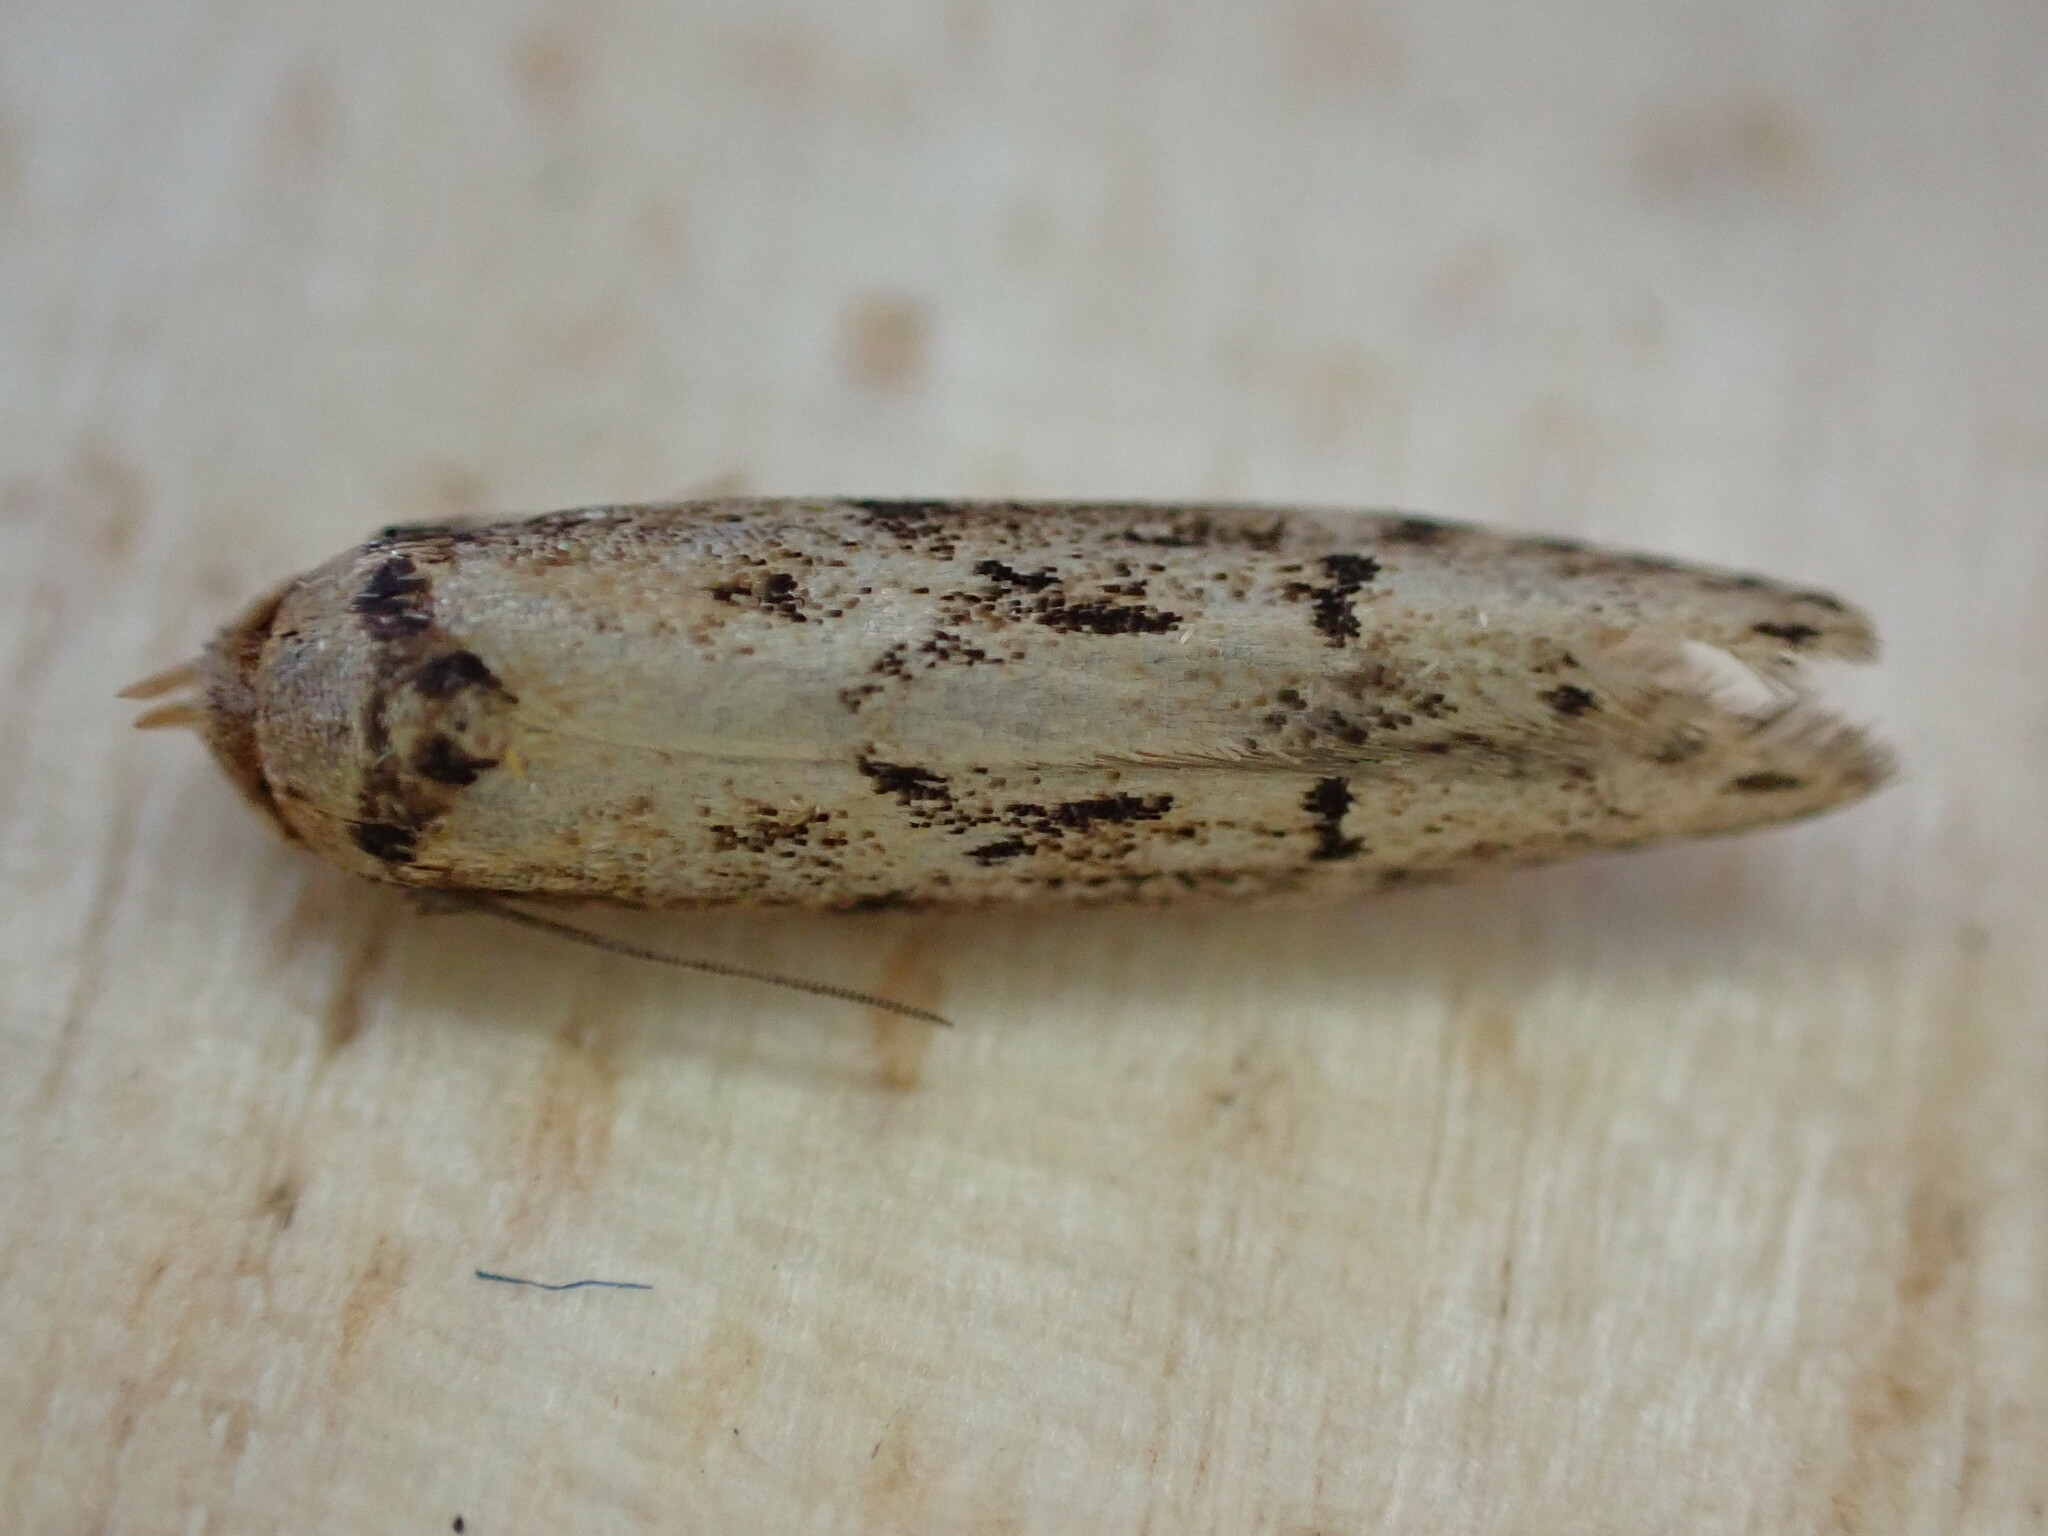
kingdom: Animalia
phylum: Arthropoda
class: Insecta
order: Lepidoptera
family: Blastobasidae
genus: Blastobasis
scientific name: Blastobasis adustella
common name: Dingy dowd
